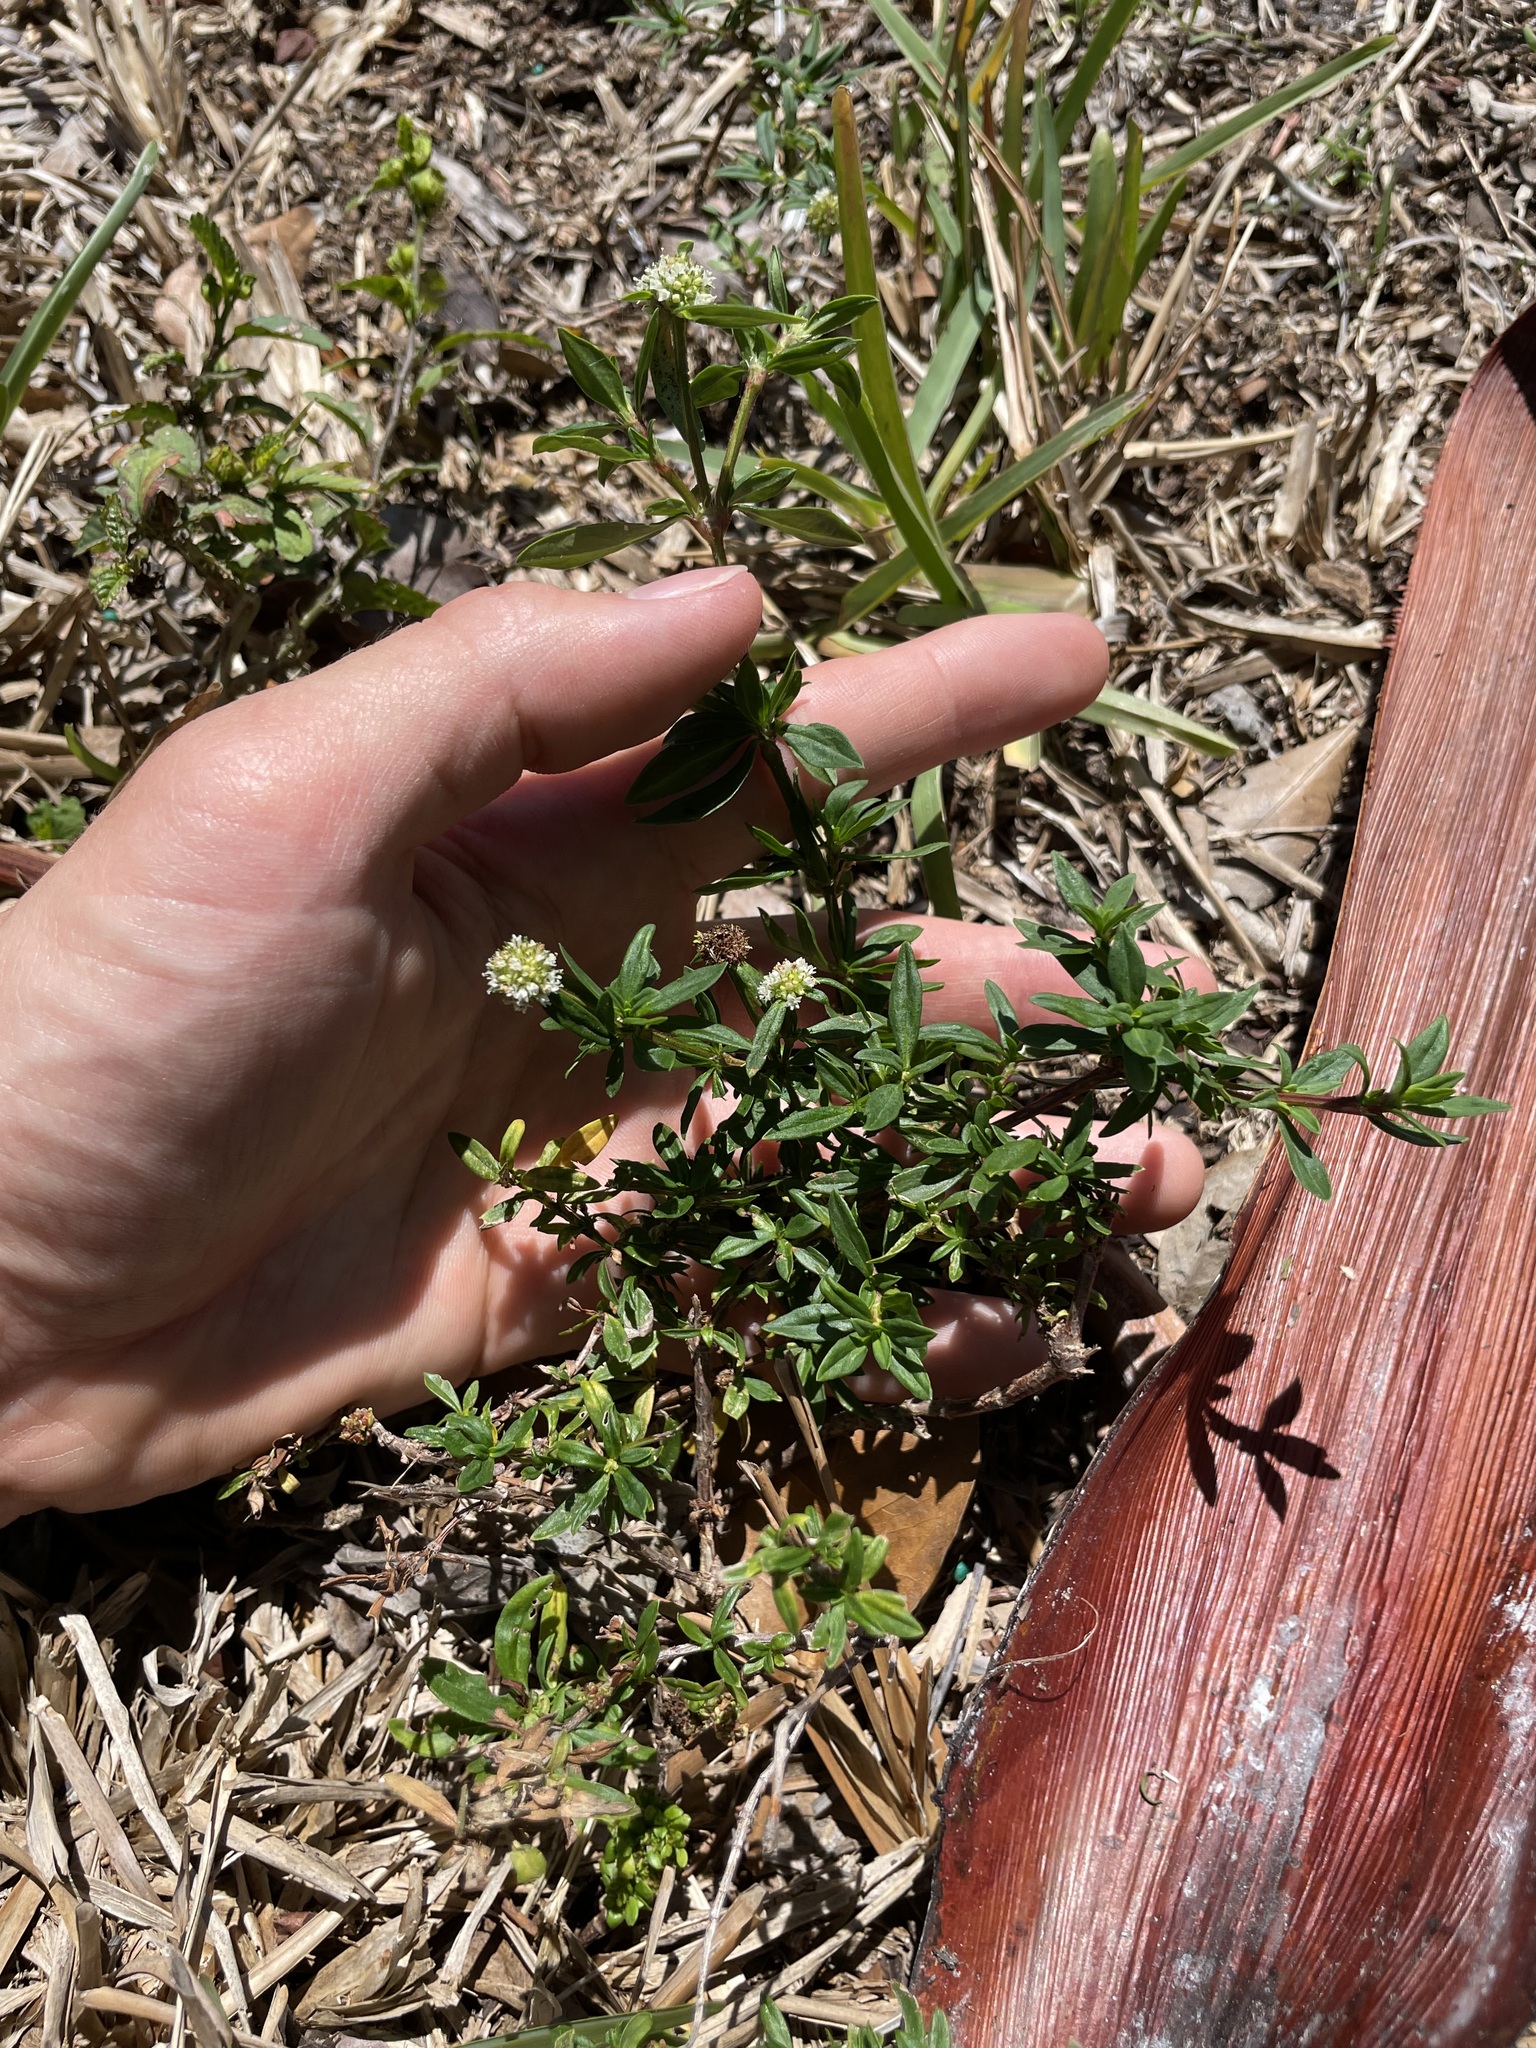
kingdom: Plantae
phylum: Tracheophyta
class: Magnoliopsida
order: Gentianales
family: Rubiaceae
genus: Spermacoce
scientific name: Spermacoce verticillata
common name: Shrubby false buttonweed
